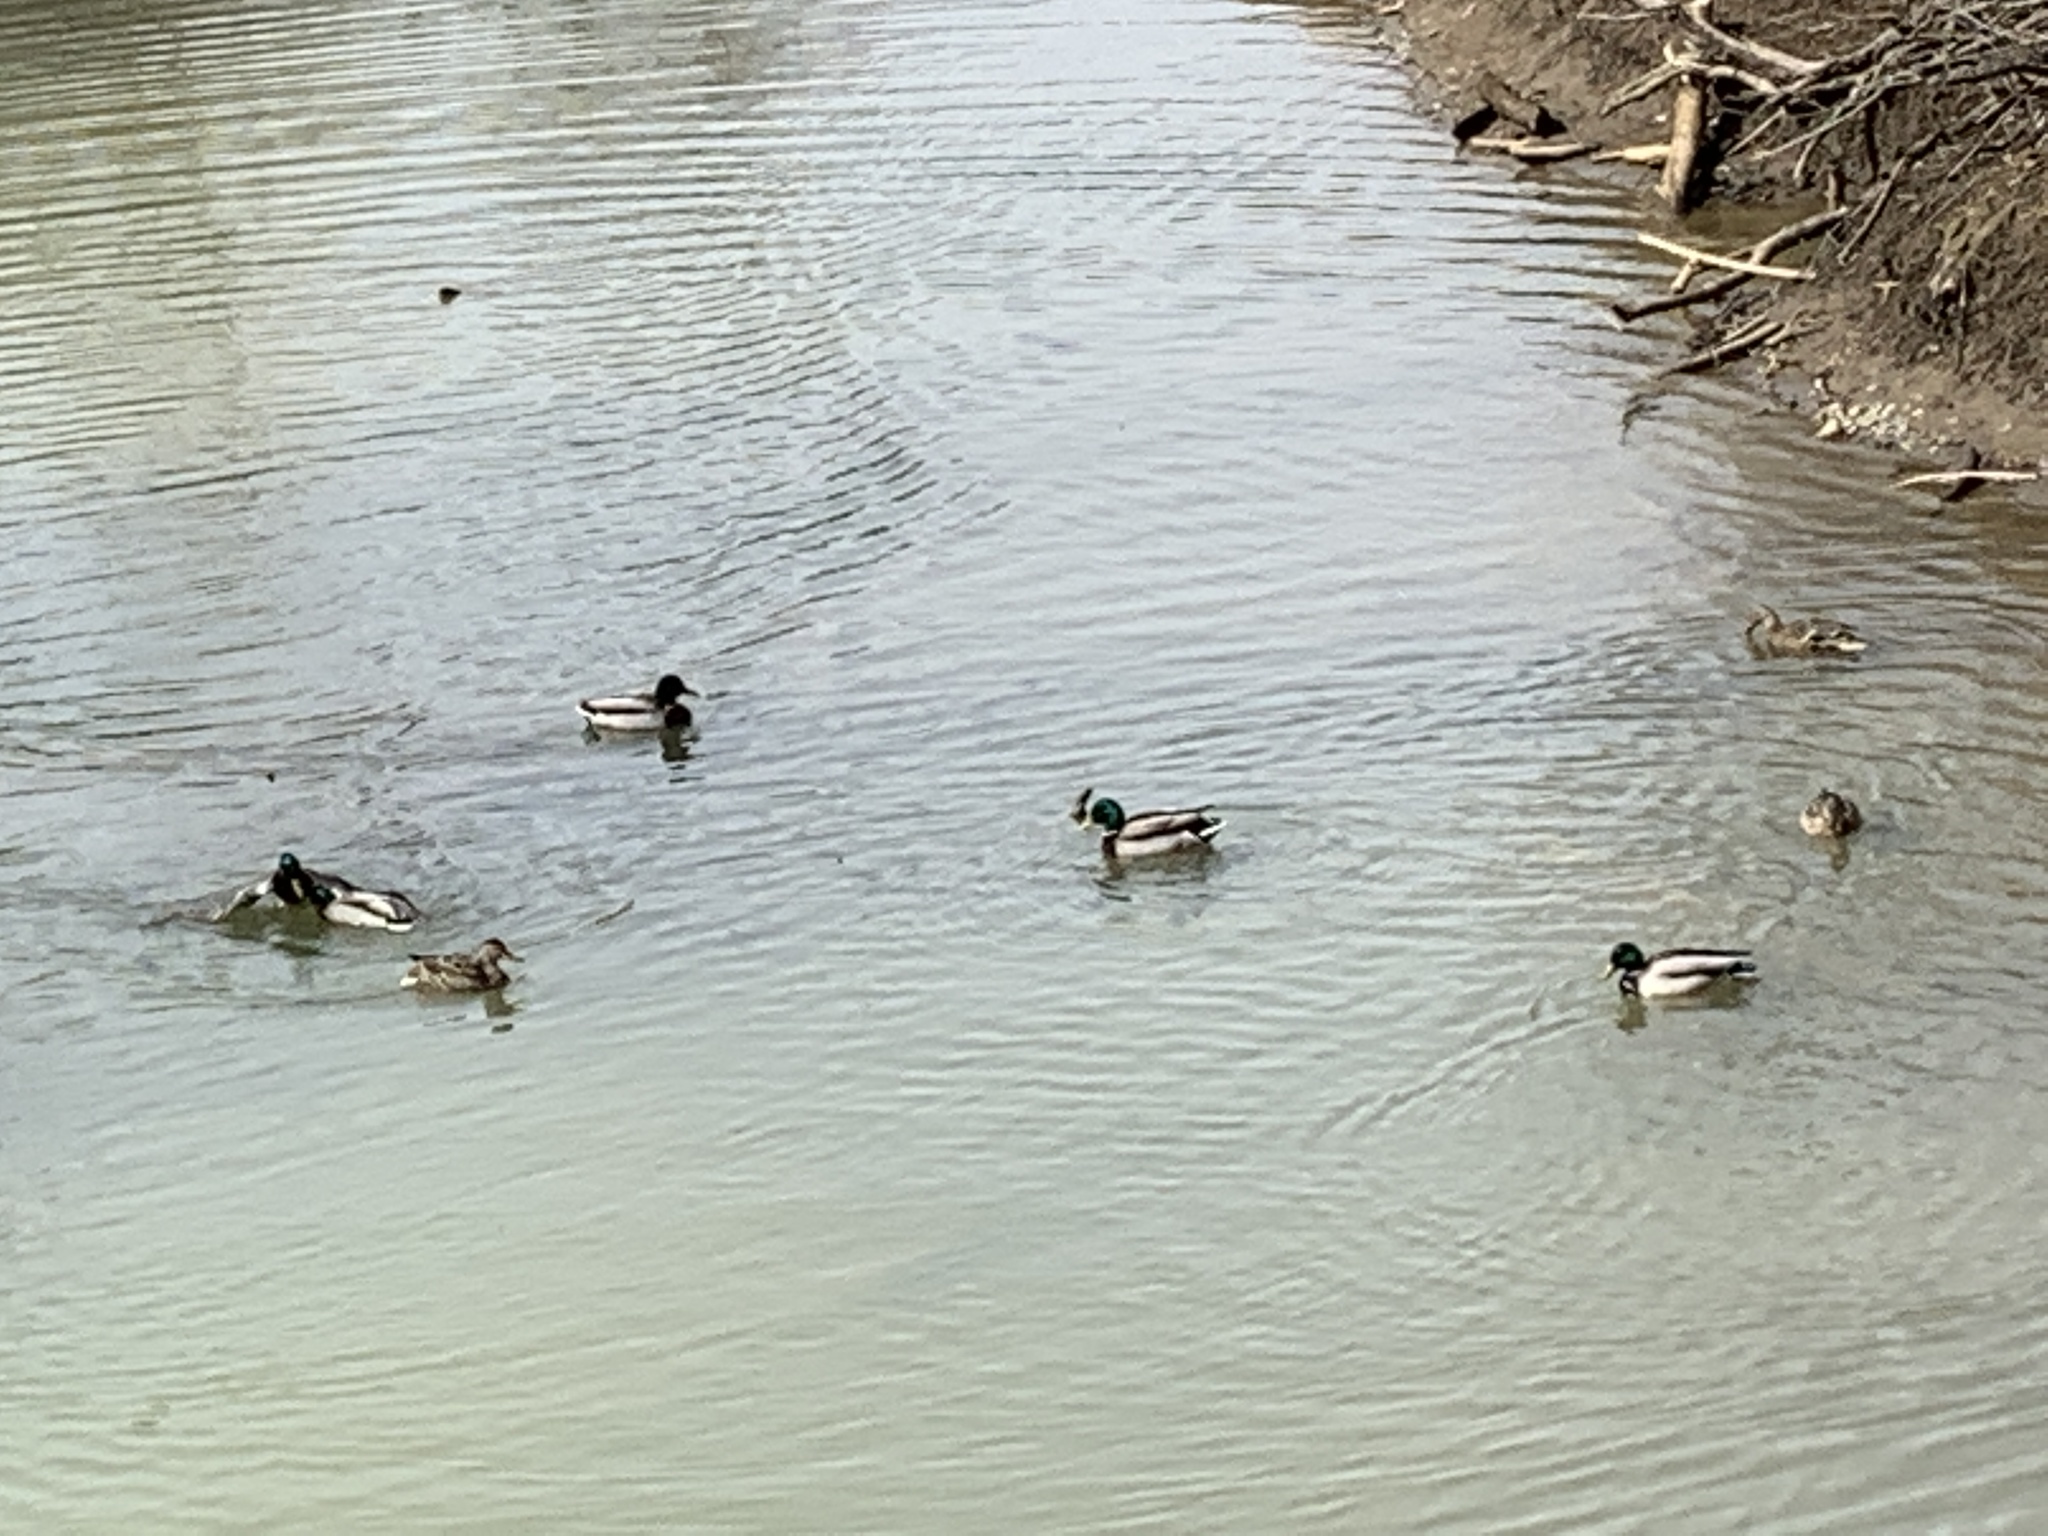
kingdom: Animalia
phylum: Chordata
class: Aves
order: Anseriformes
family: Anatidae
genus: Anas
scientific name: Anas platyrhynchos
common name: Mallard
